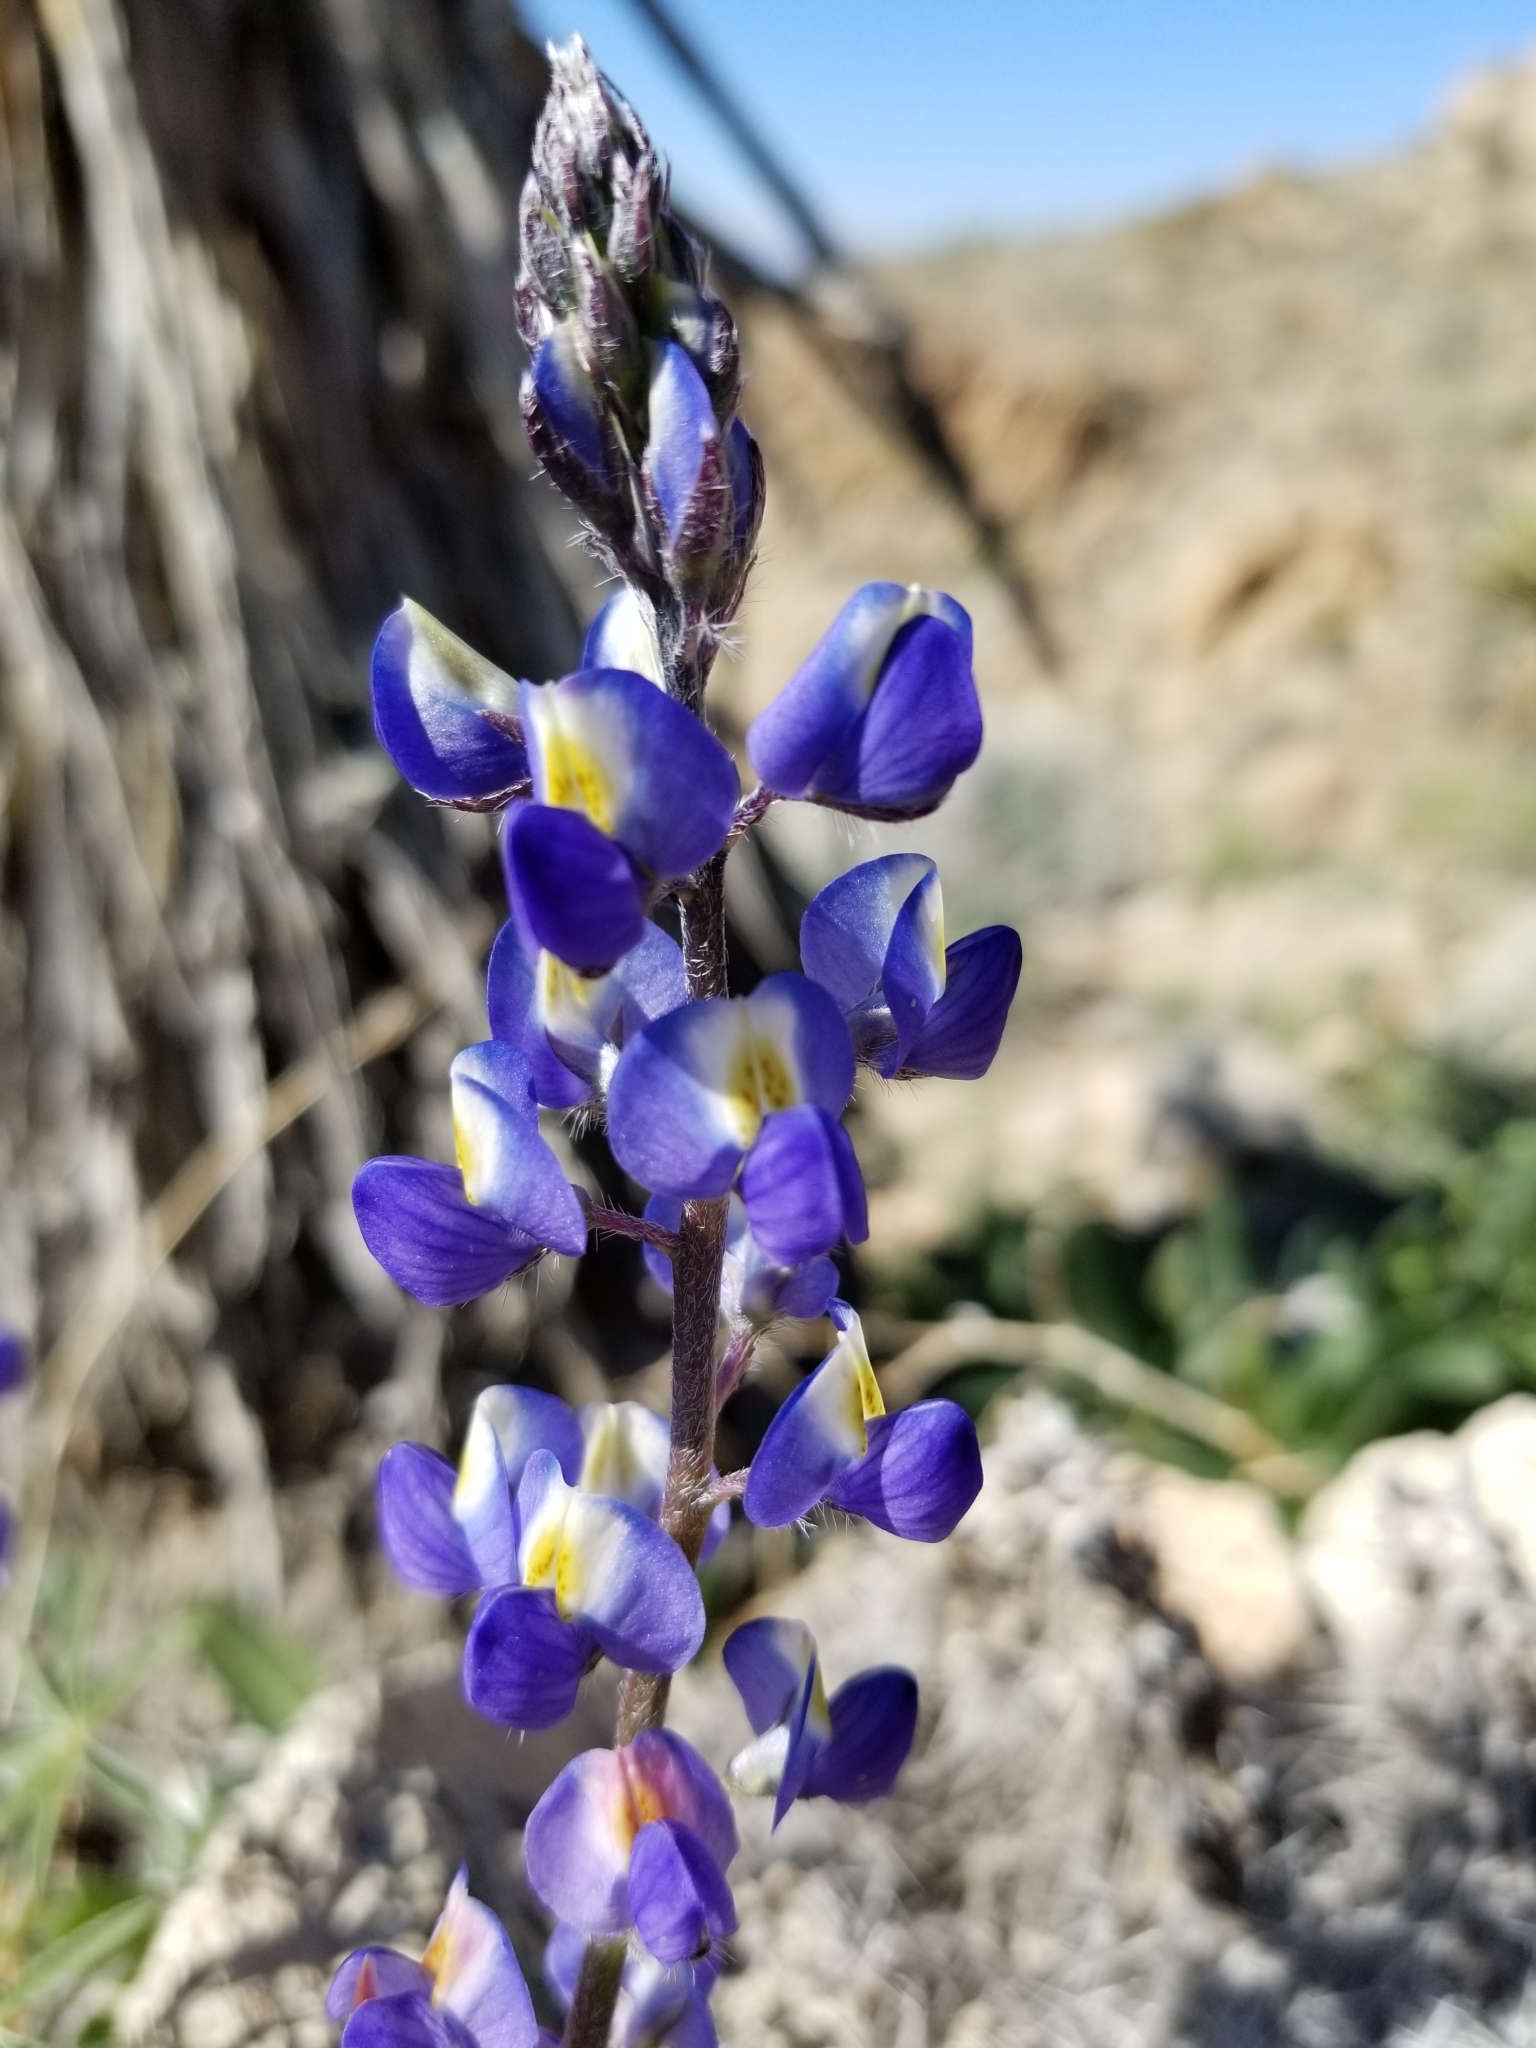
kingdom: Plantae
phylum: Tracheophyta
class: Magnoliopsida
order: Fabales
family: Fabaceae
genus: Lupinus
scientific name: Lupinus sparsiflorus
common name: Coulter's lupine
